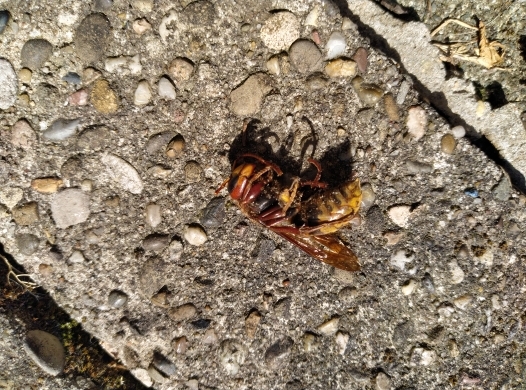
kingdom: Animalia
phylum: Arthropoda
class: Insecta
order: Hymenoptera
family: Vespidae
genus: Vespa
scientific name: Vespa crabro
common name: Hornet
